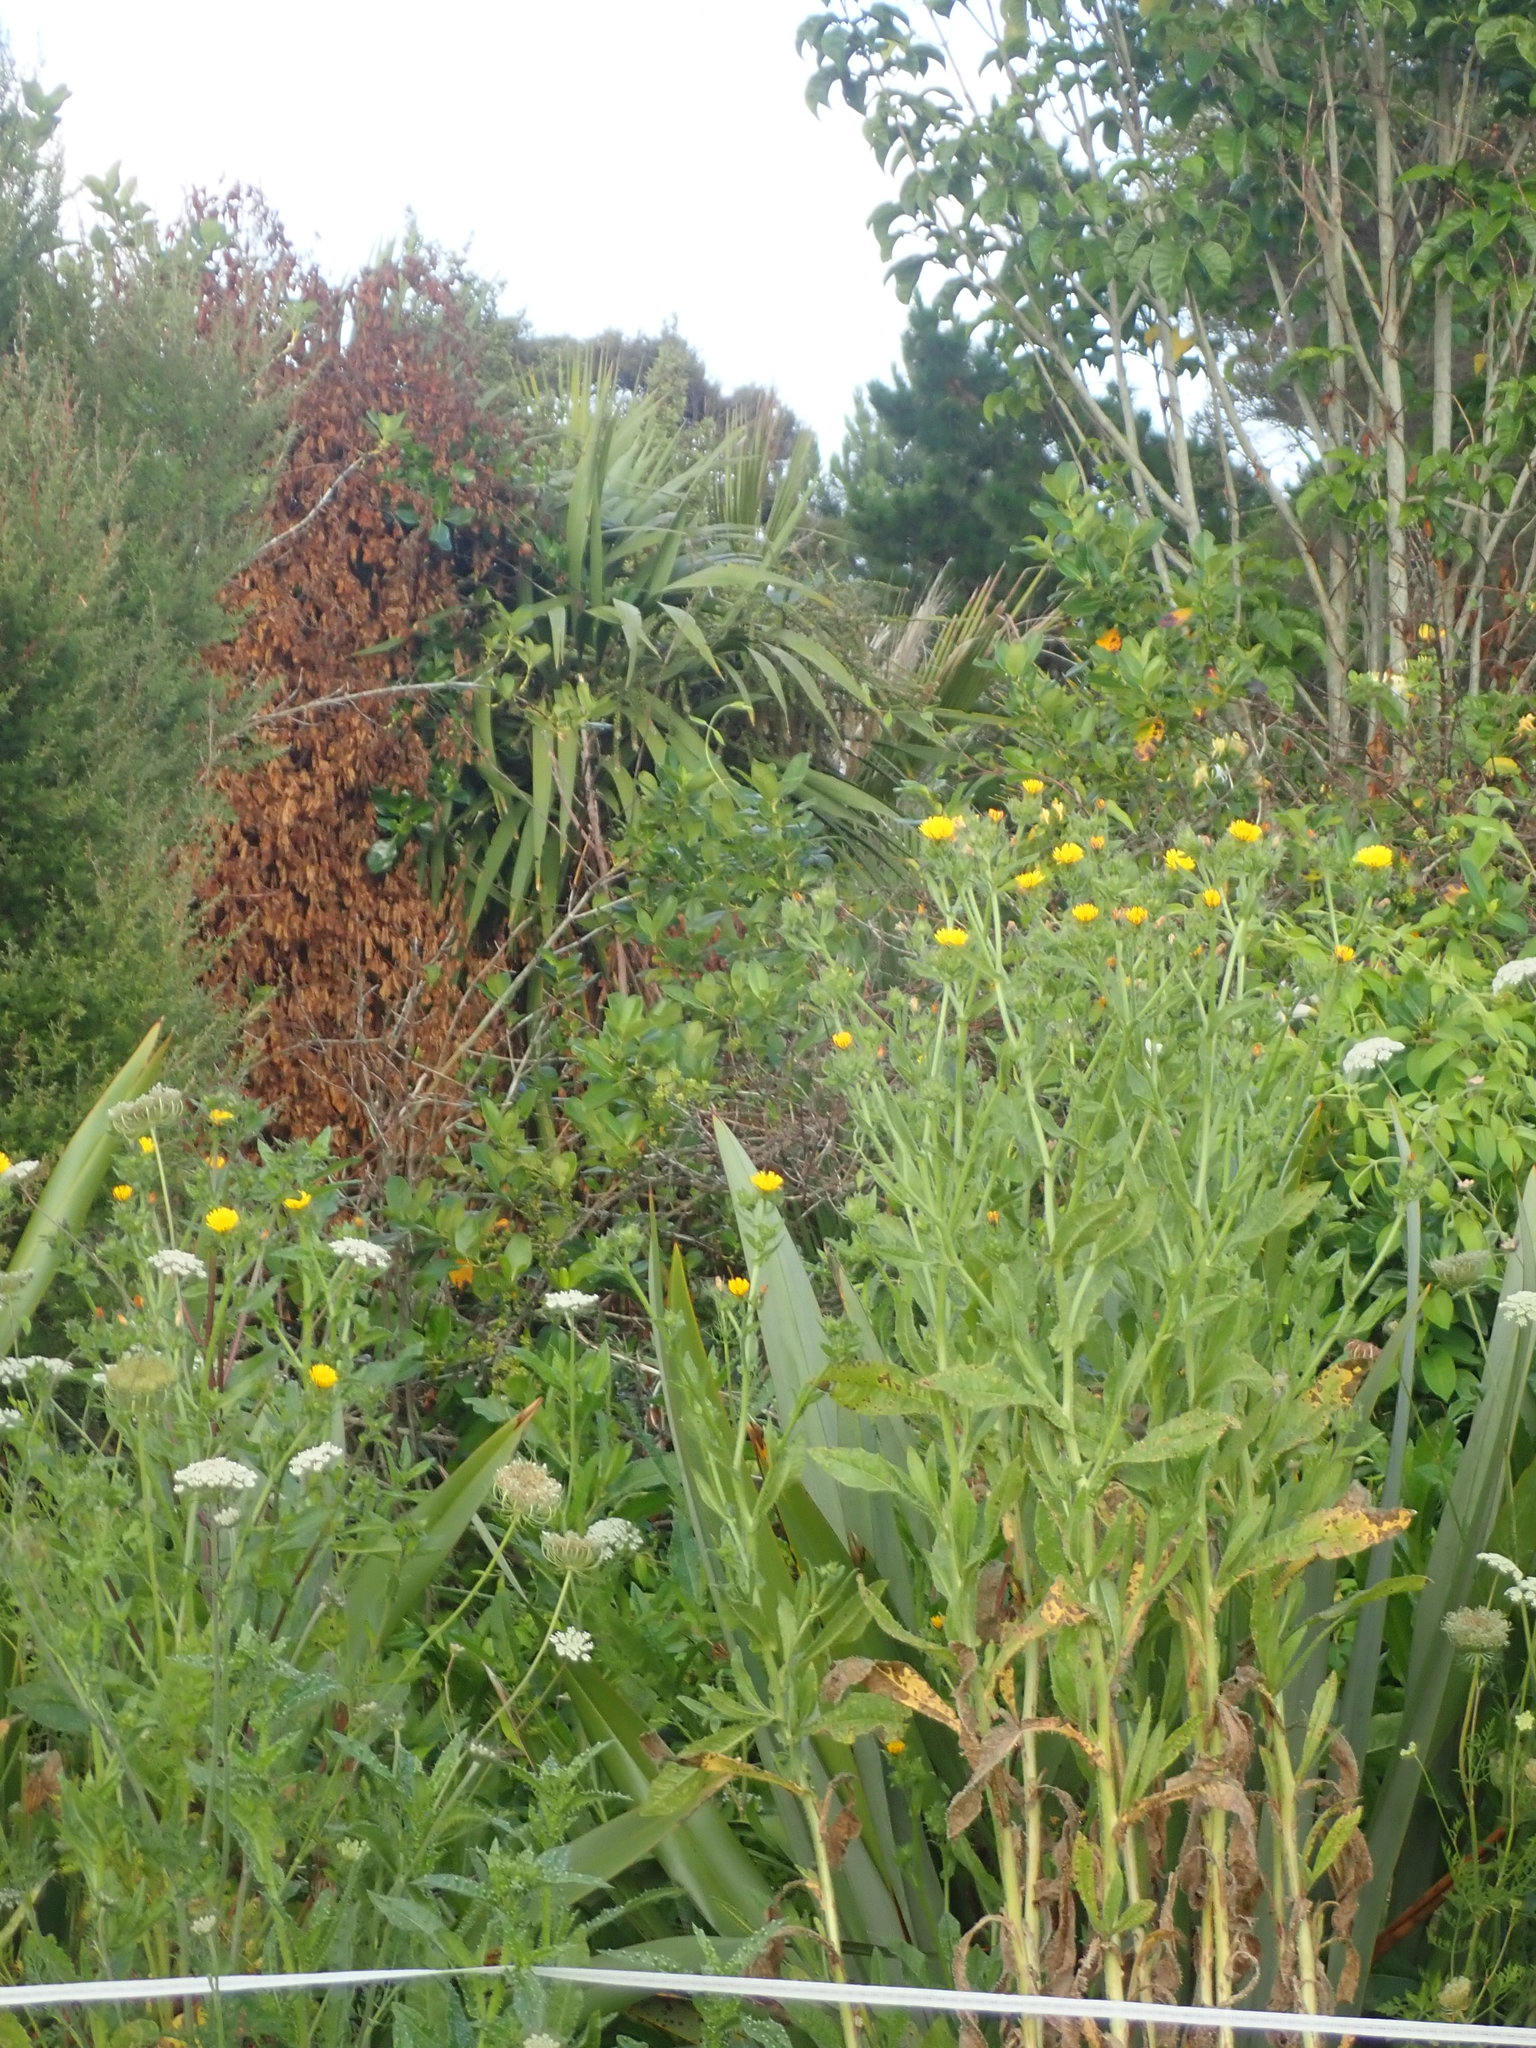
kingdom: Plantae
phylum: Tracheophyta
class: Liliopsida
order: Asparagales
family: Asparagaceae
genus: Cordyline
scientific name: Cordyline australis
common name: Cabbage-palm
